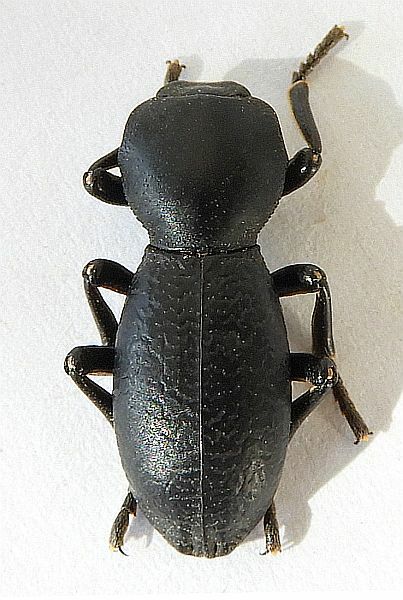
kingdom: Animalia
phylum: Arthropoda
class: Insecta
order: Coleoptera
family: Zopheridae
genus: Zopherus
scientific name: Zopherus gracilis
